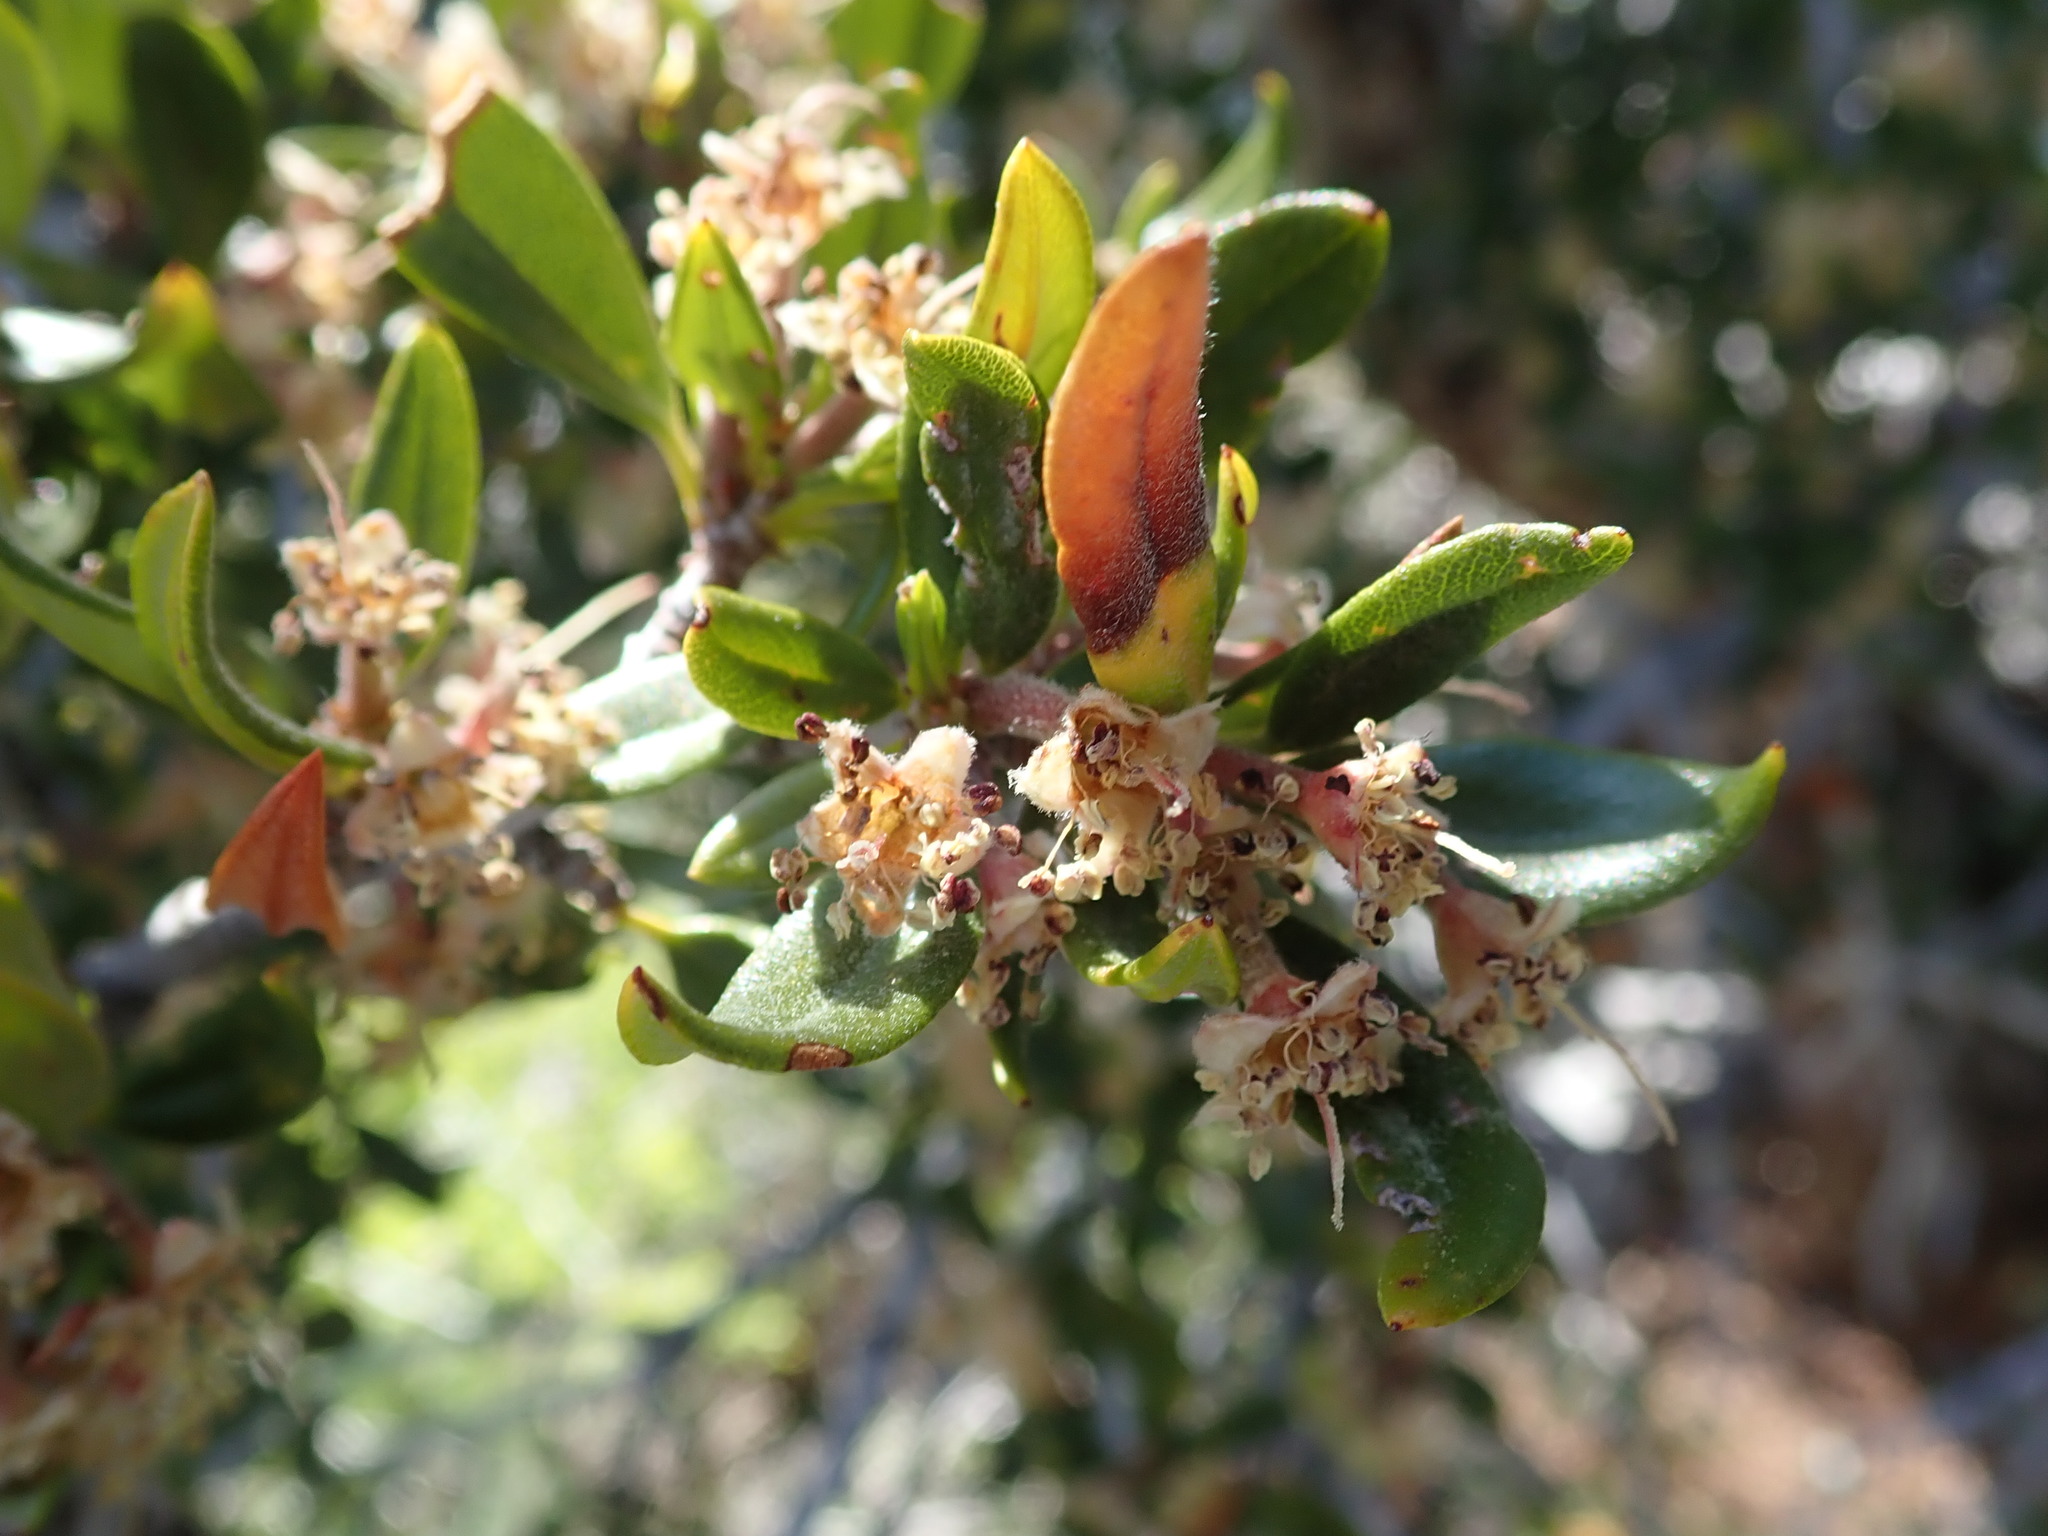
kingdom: Plantae
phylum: Tracheophyta
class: Magnoliopsida
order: Rosales
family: Rosaceae
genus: Cercocarpus
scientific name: Cercocarpus ledifolius
